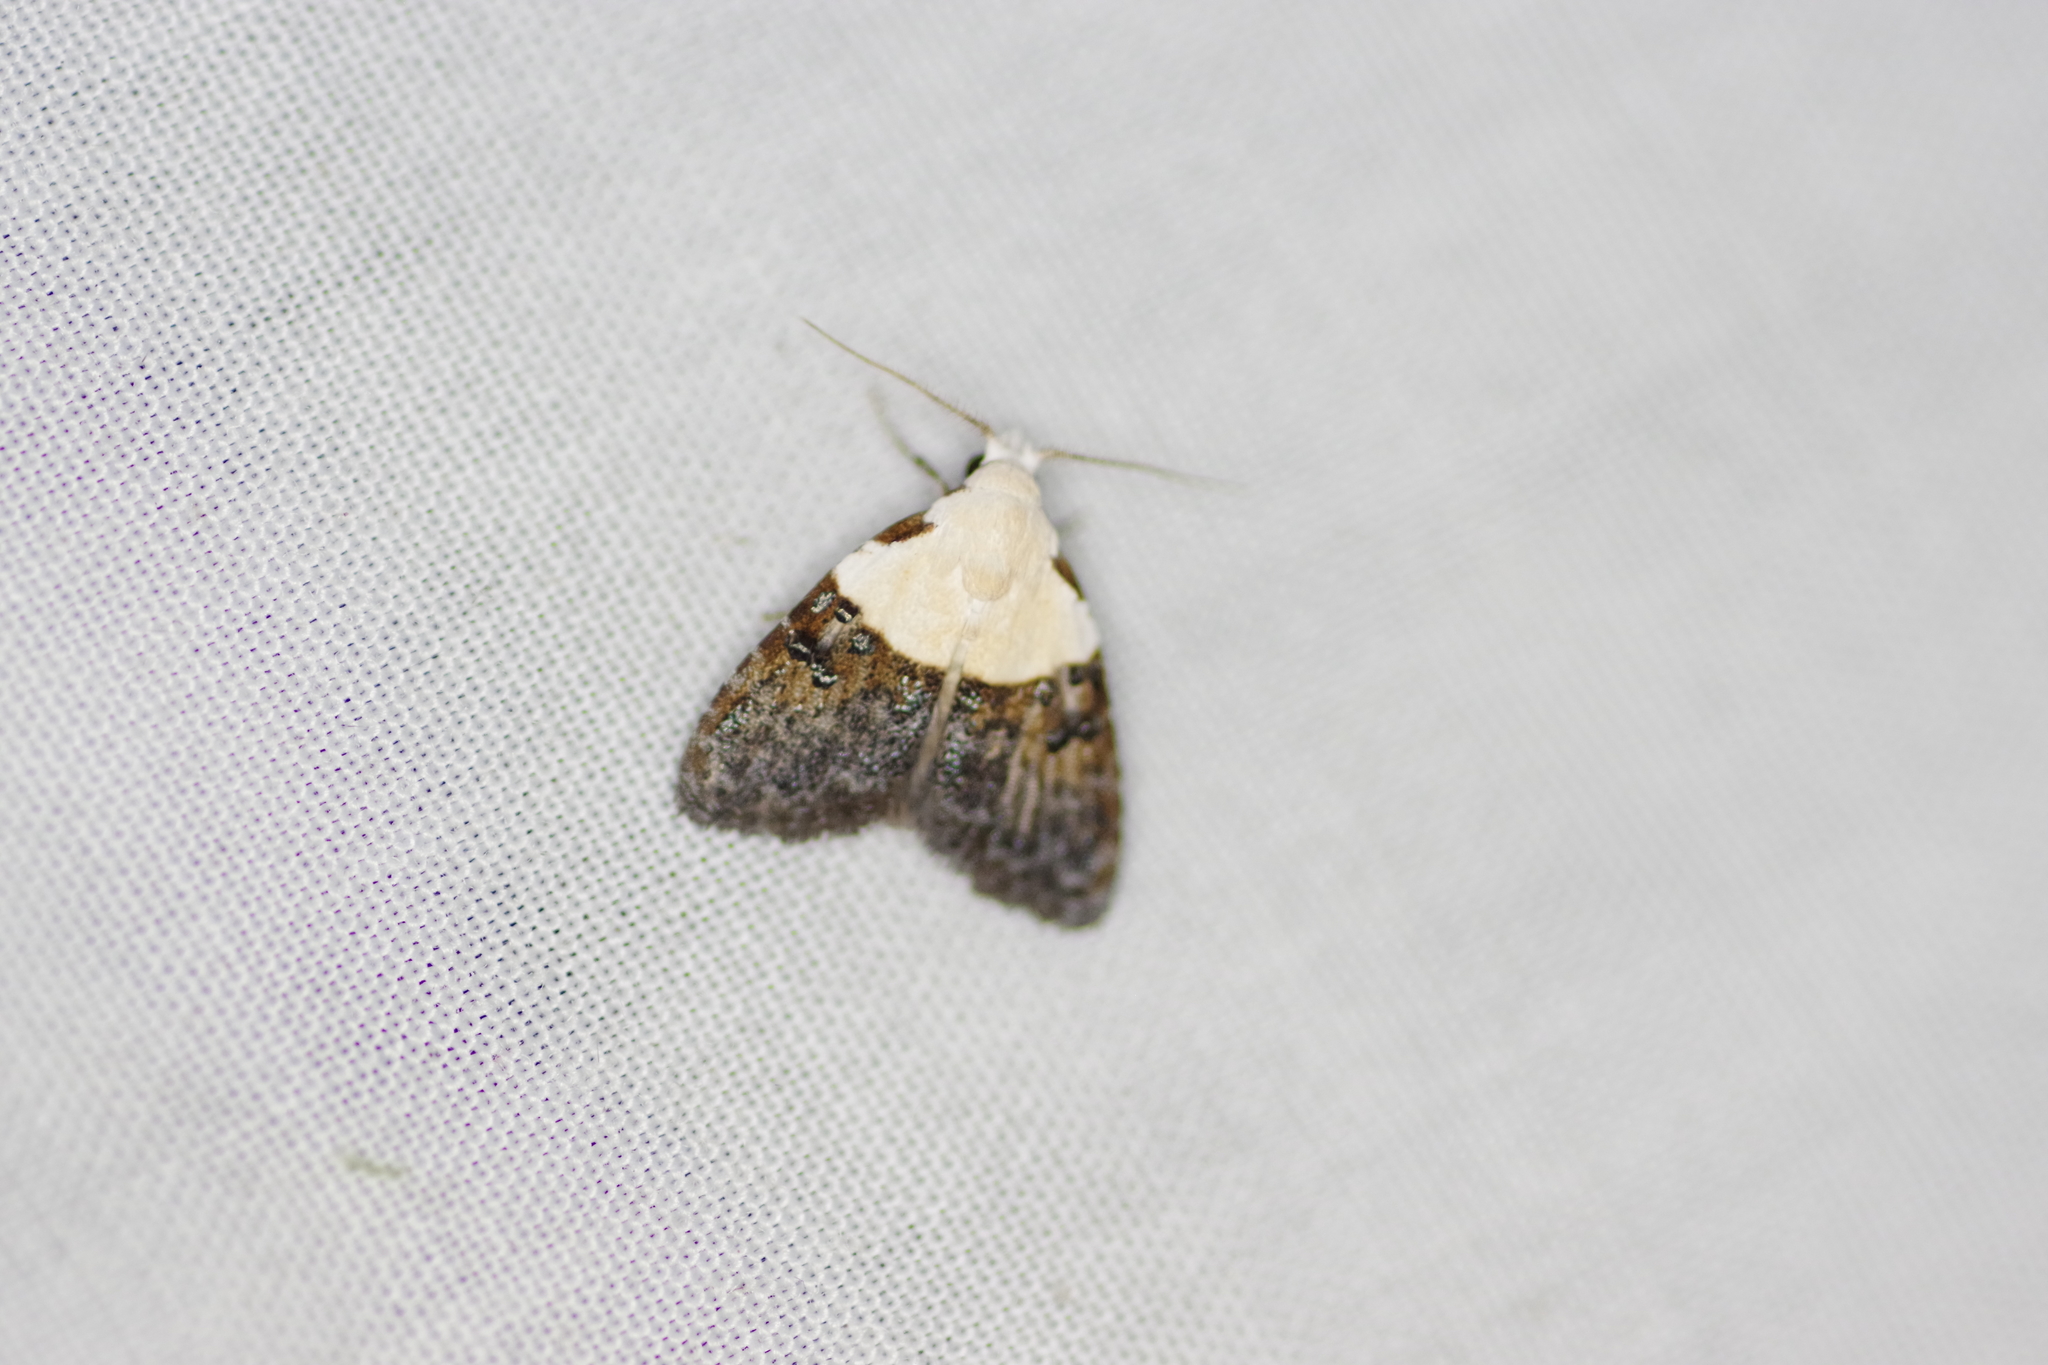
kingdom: Animalia
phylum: Arthropoda
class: Insecta
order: Lepidoptera
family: Nolidae
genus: Nola
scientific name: Nola turbana
